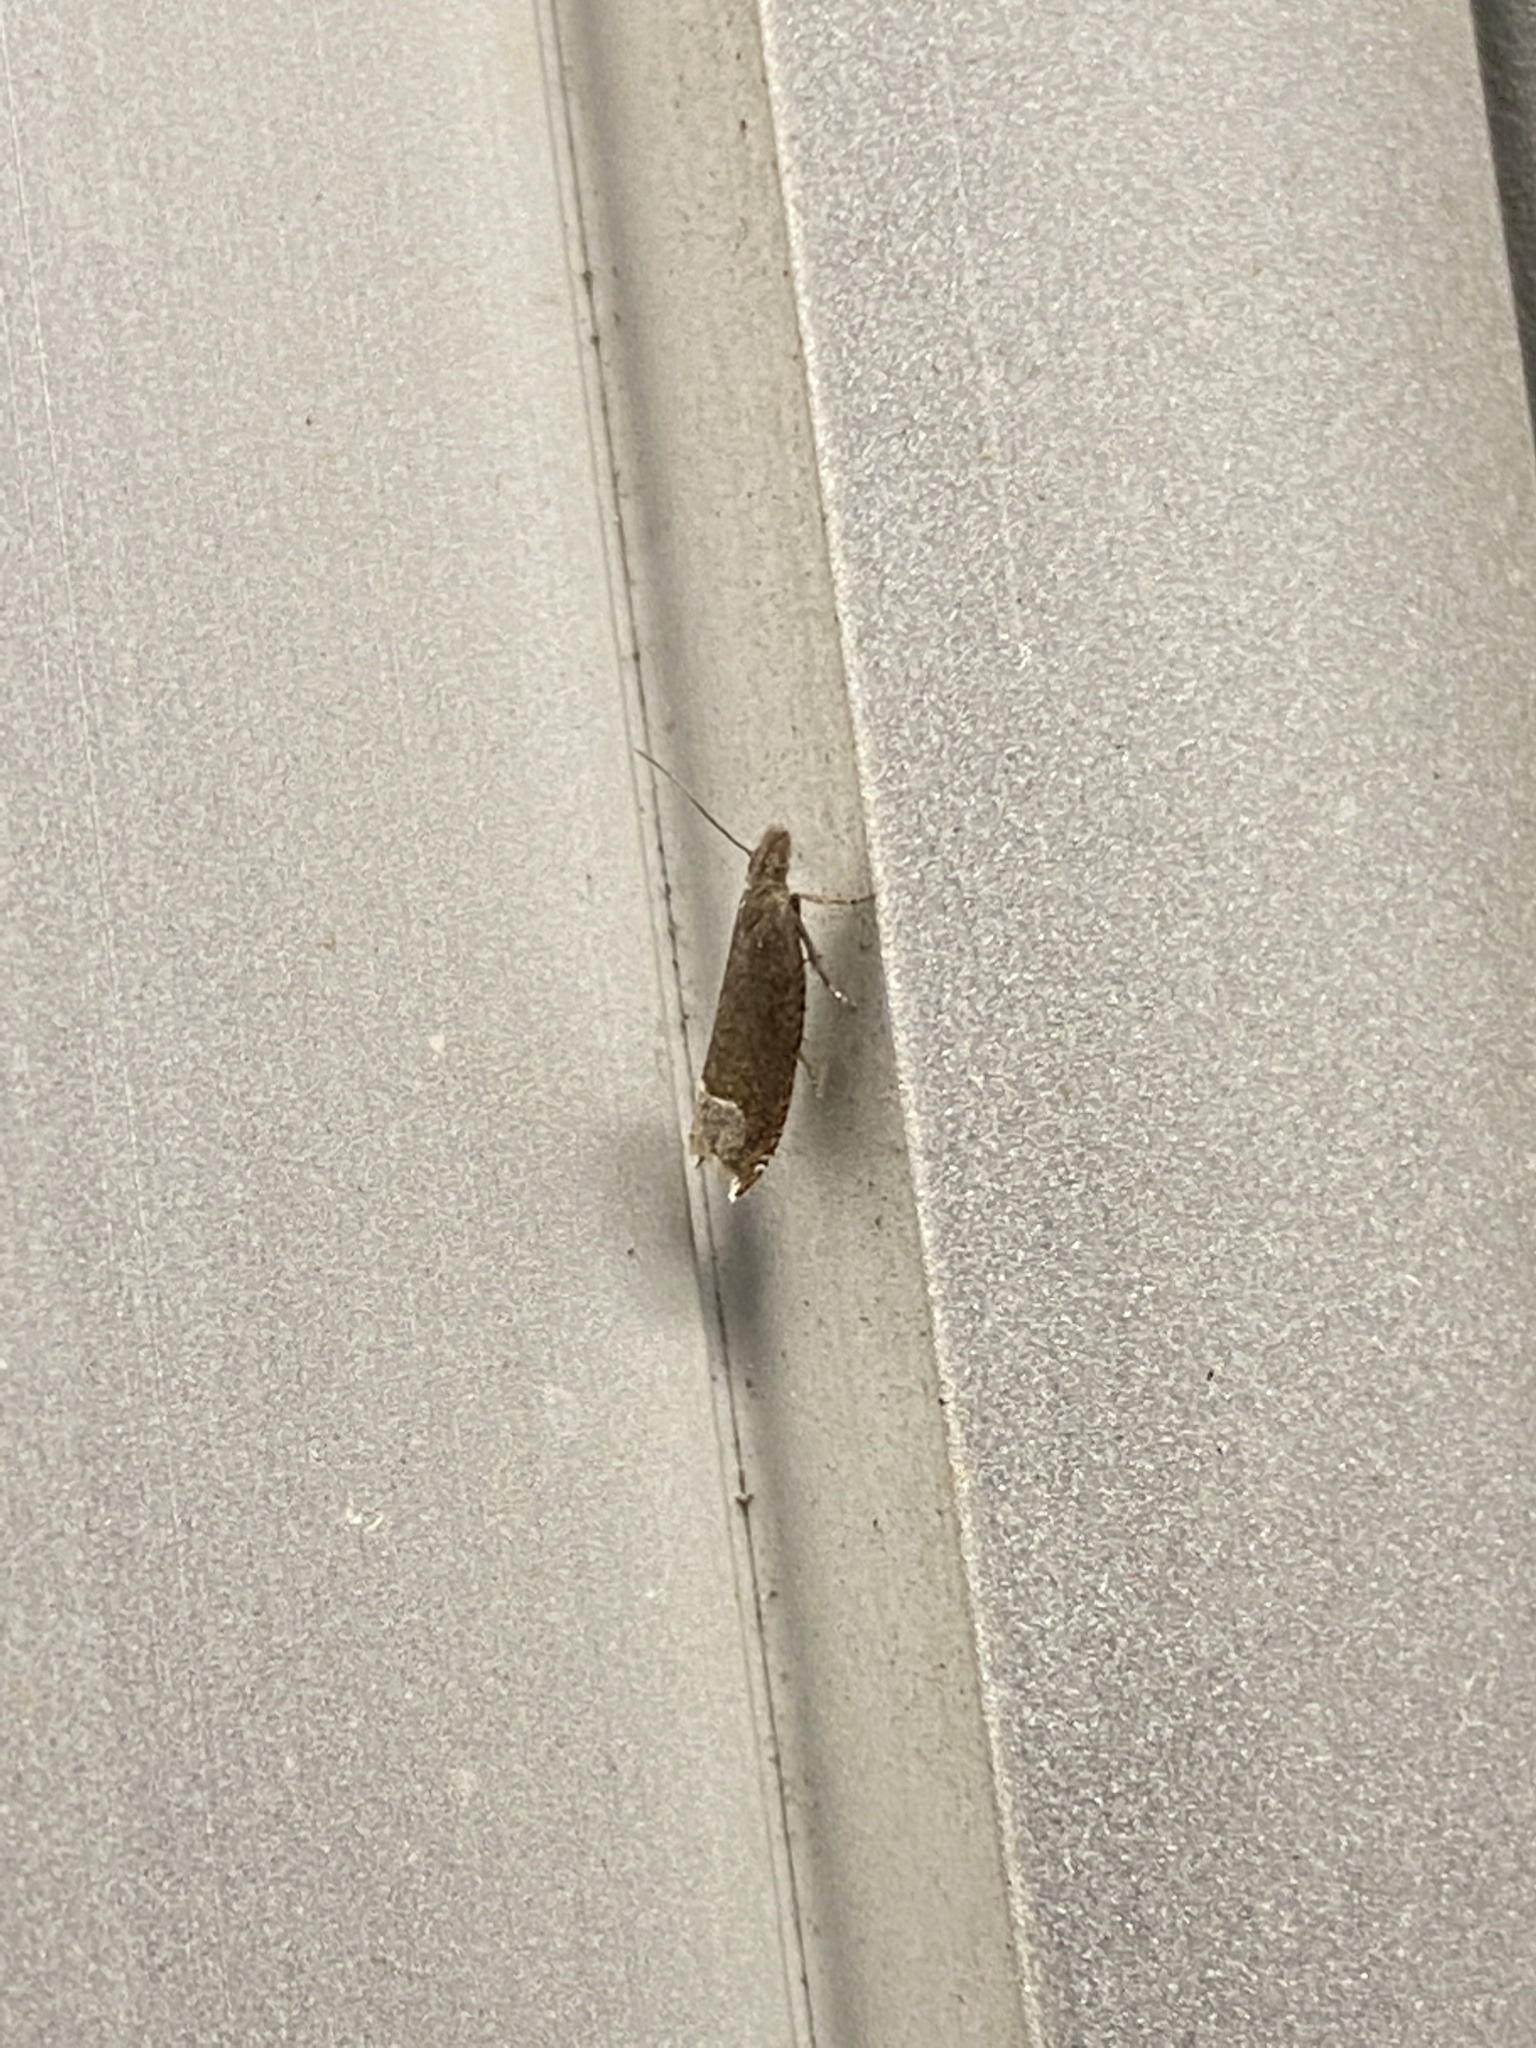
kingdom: Animalia
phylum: Arthropoda
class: Insecta
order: Lepidoptera
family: Tortricidae
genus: Ancylis
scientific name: Ancylis tineana
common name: Rannoch roller
